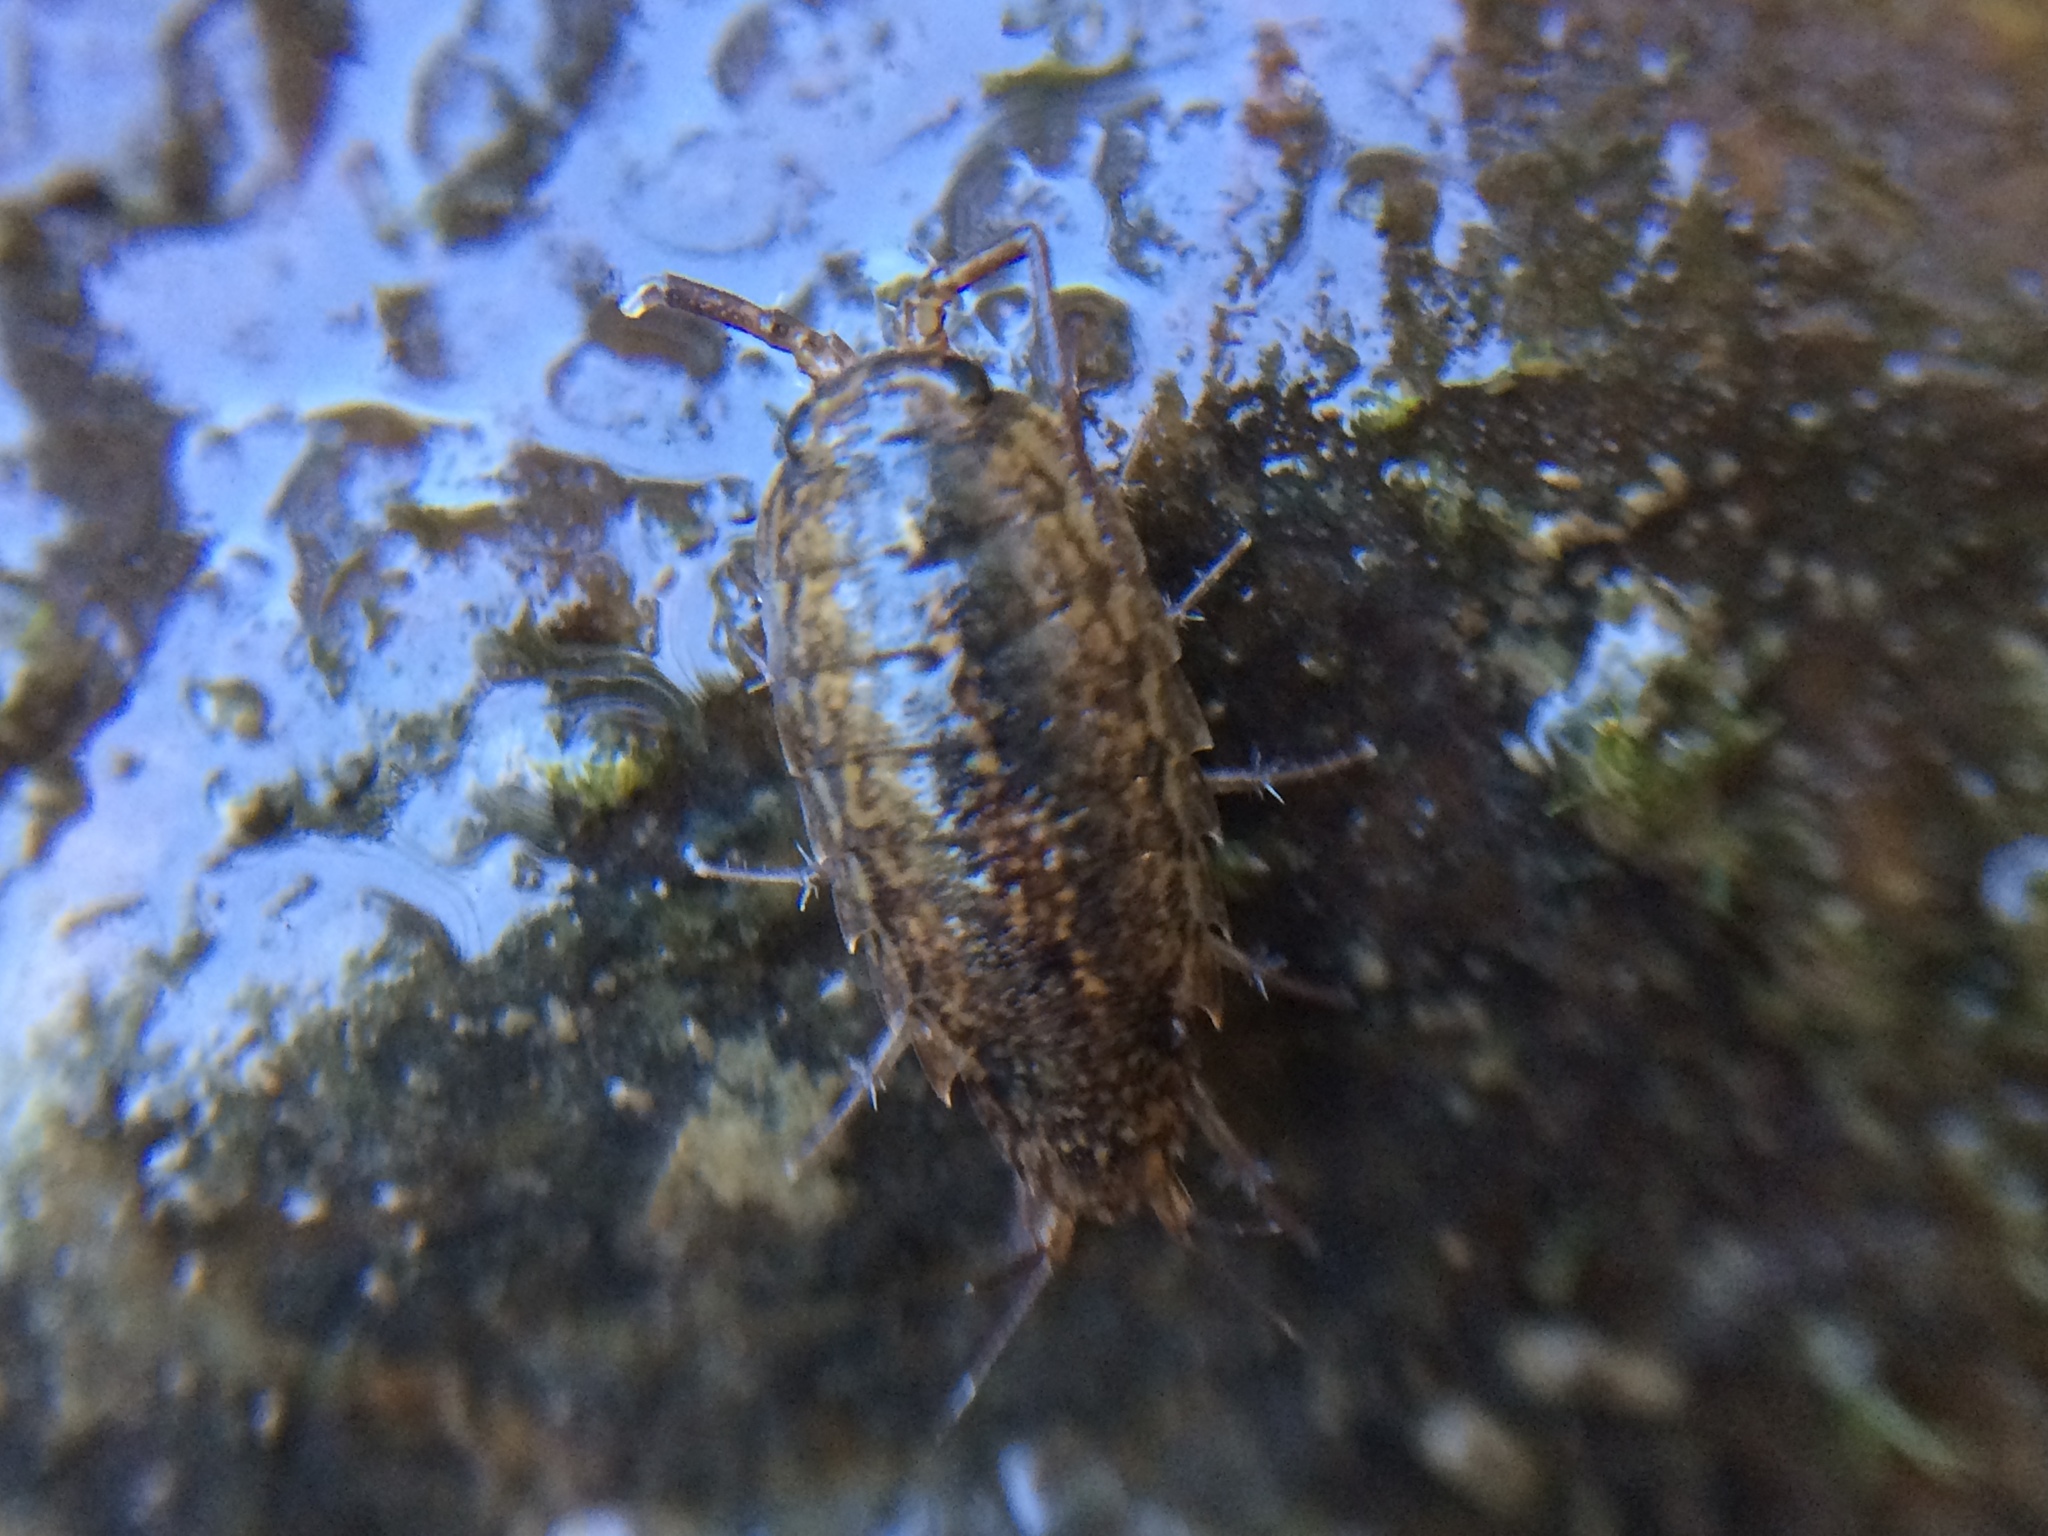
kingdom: Animalia
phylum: Arthropoda
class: Malacostraca
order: Isopoda
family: Ligiidae
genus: Ligidium
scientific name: Ligidium latum
